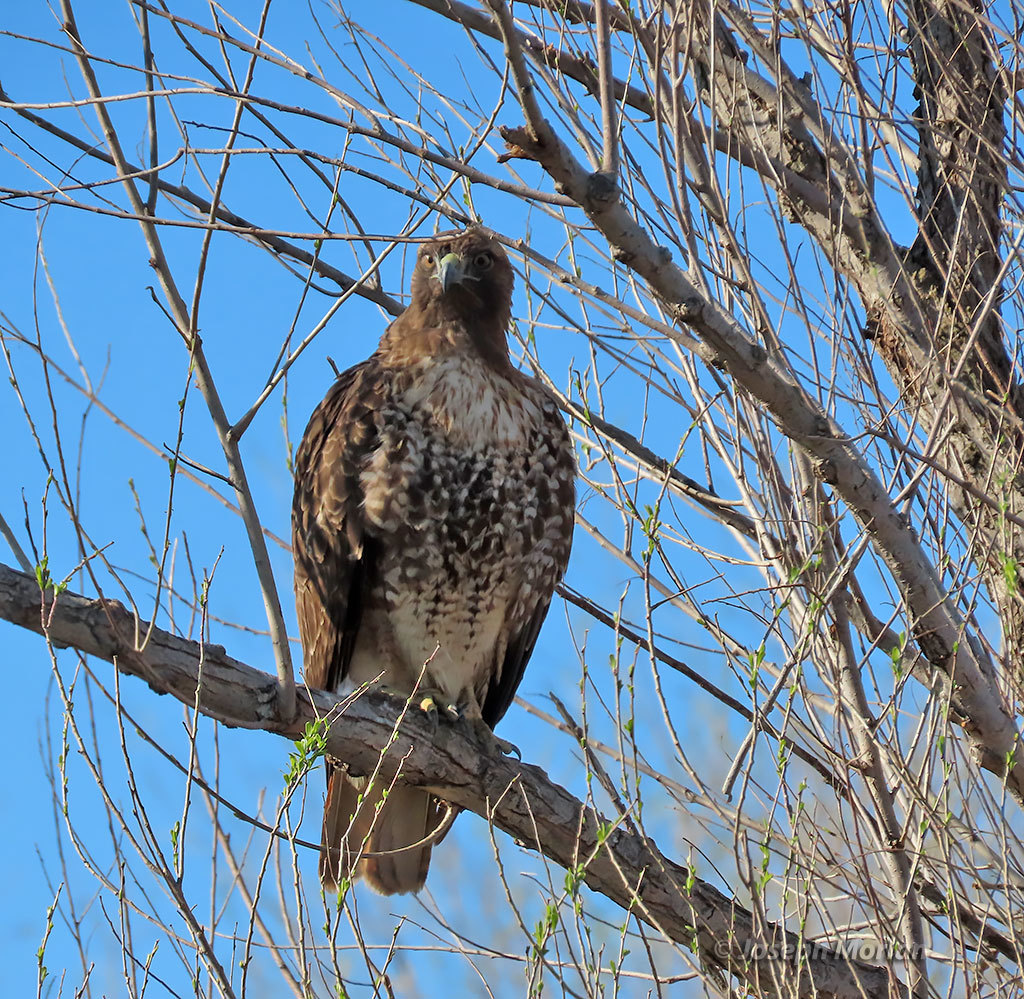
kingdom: Animalia
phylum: Chordata
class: Aves
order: Accipitriformes
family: Accipitridae
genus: Buteo
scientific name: Buteo jamaicensis
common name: Red-tailed hawk
